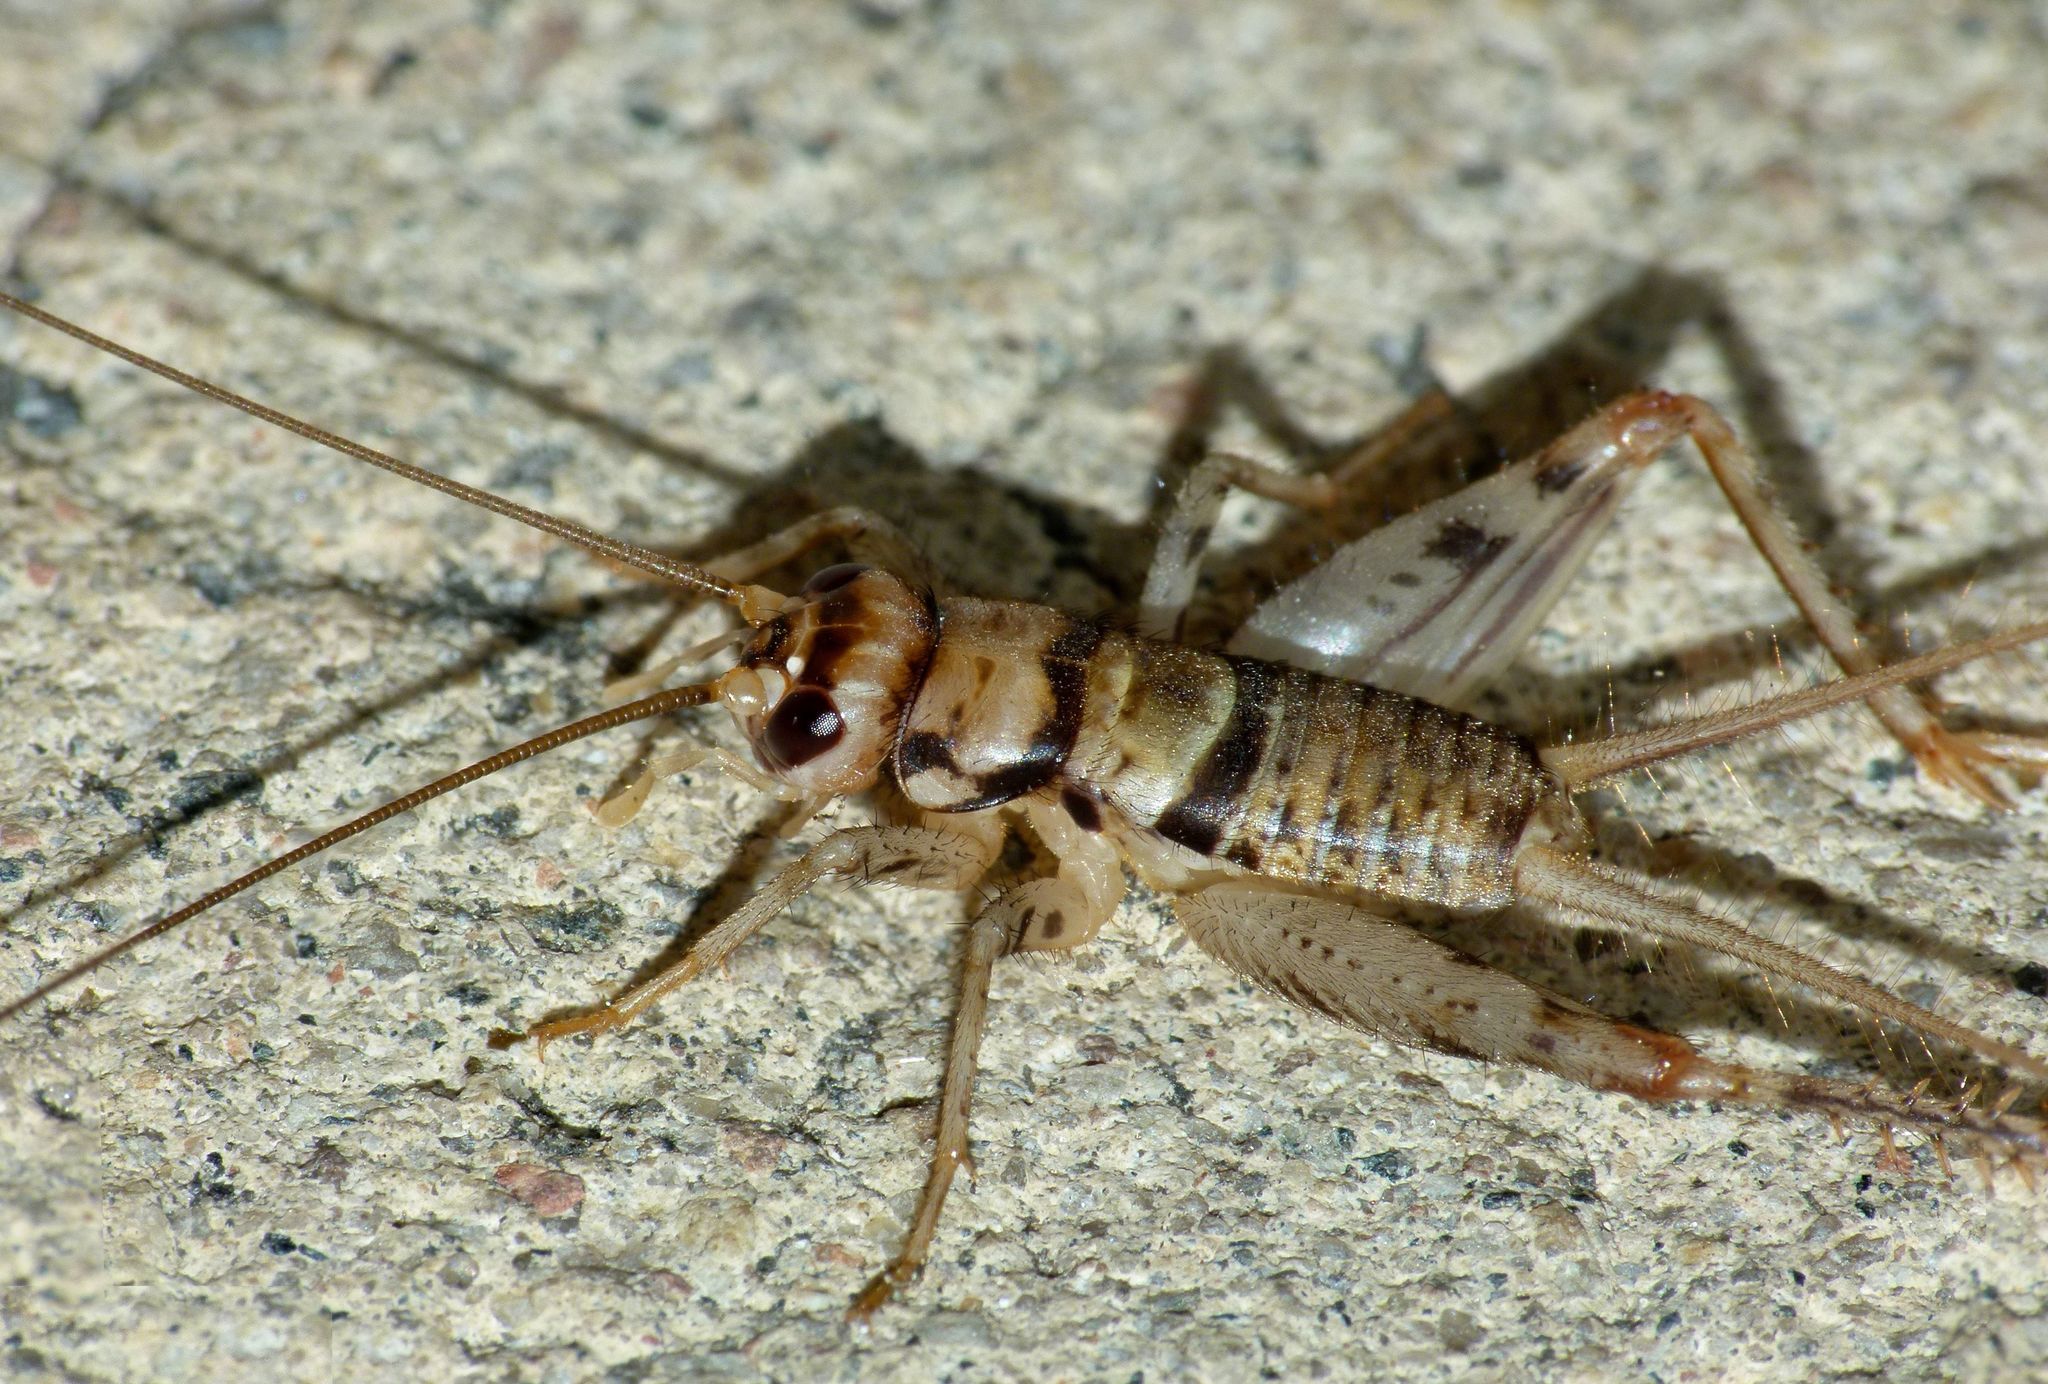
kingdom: Animalia
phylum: Arthropoda
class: Insecta
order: Orthoptera
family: Gryllidae
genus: Gryllodes
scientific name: Gryllodes sigillatus
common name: Tropical house cricket
